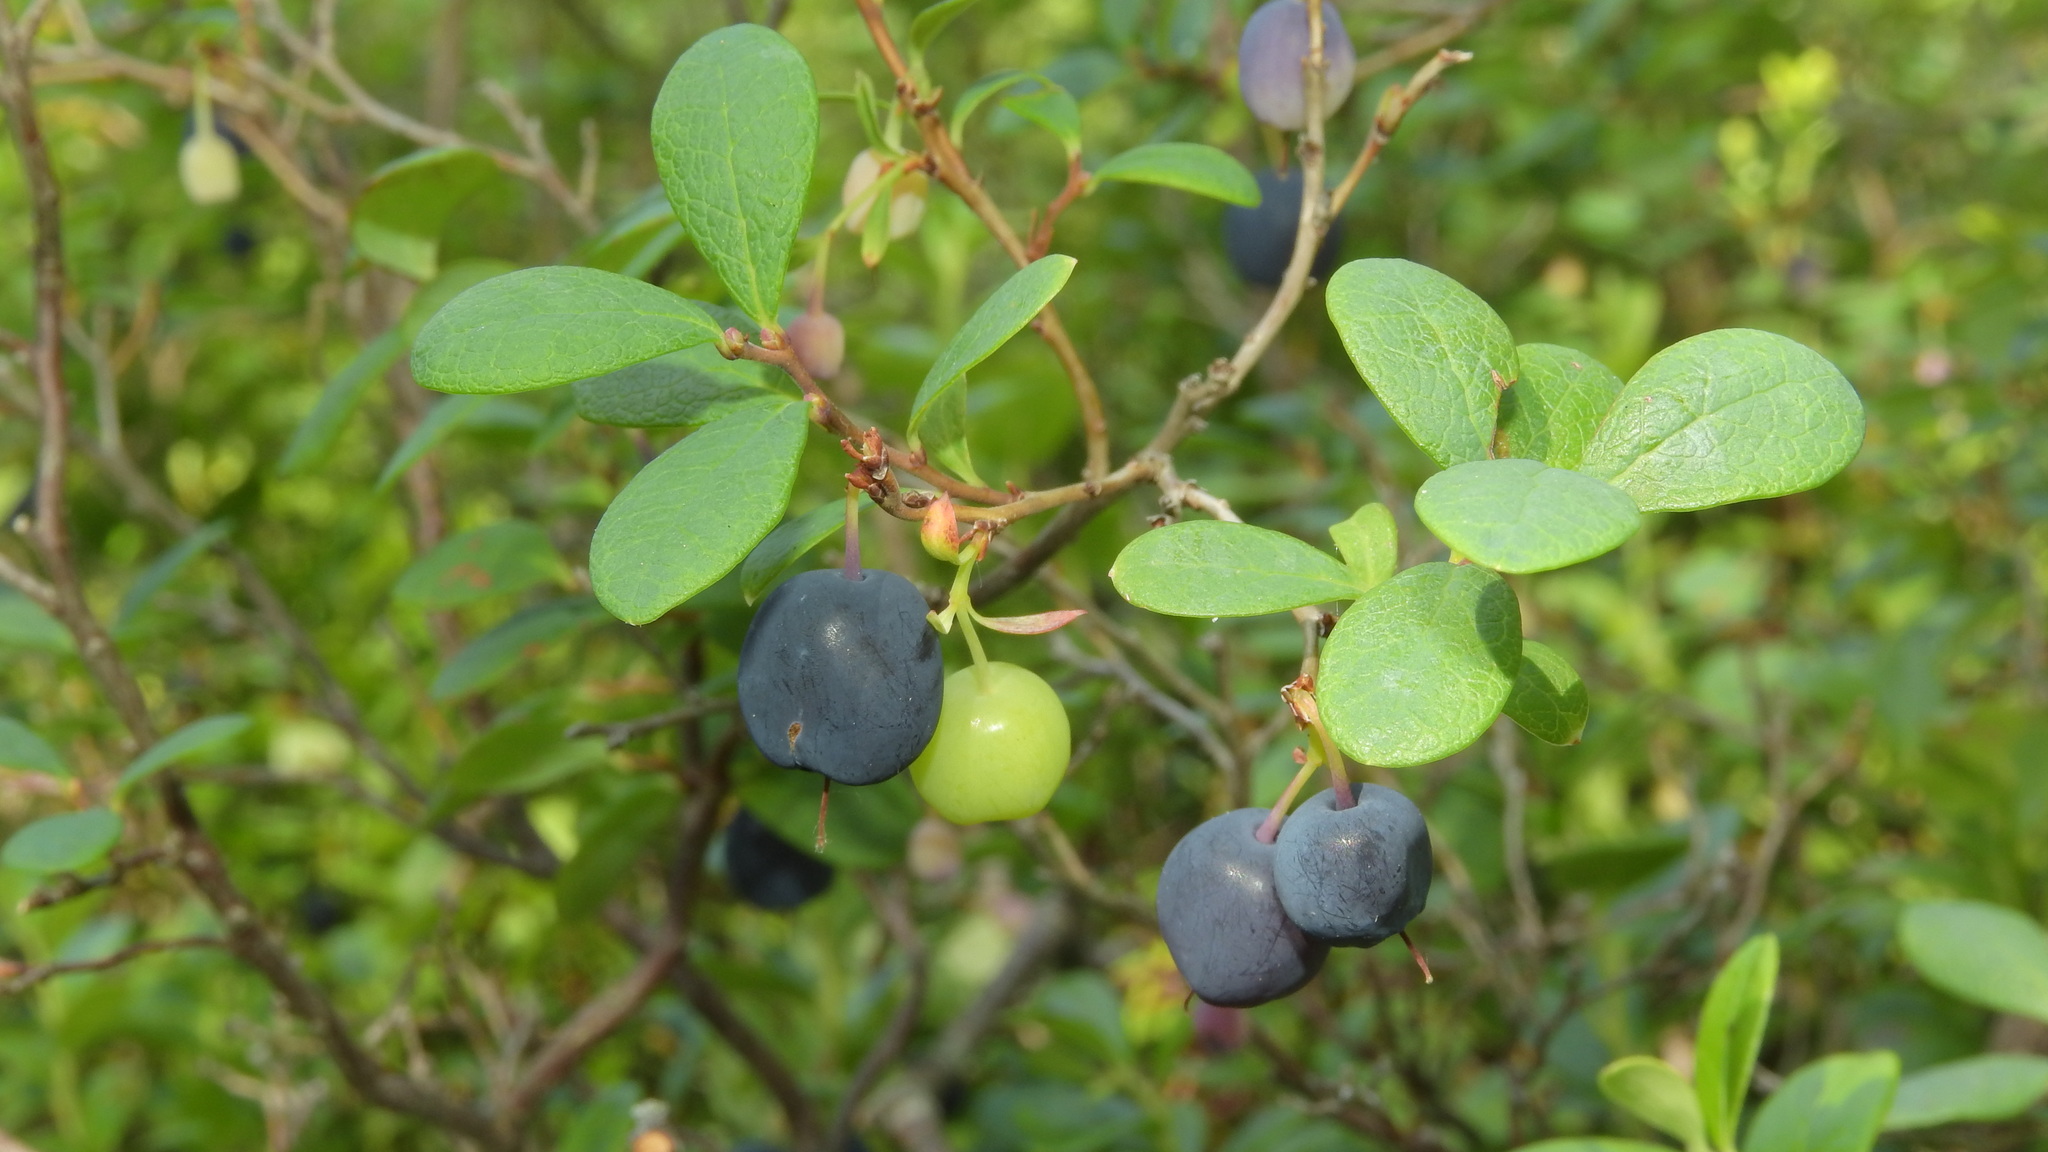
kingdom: Plantae
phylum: Tracheophyta
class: Magnoliopsida
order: Ericales
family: Ericaceae
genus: Vaccinium
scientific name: Vaccinium uliginosum
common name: Bog bilberry
